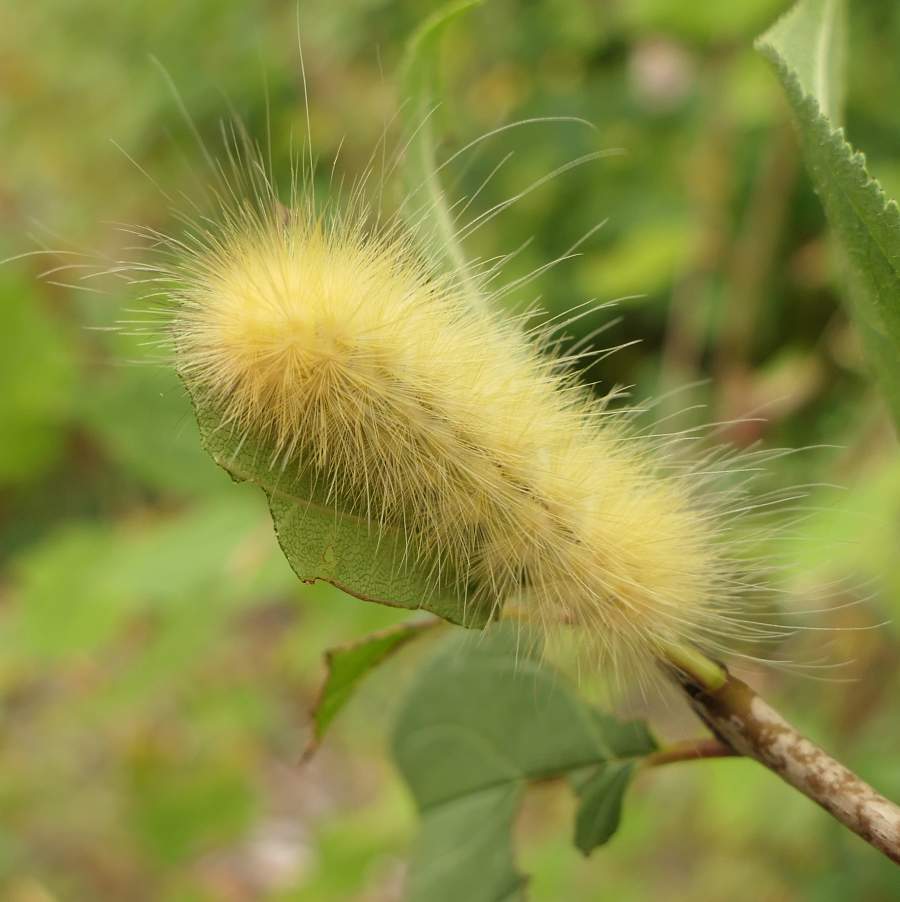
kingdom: Animalia
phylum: Arthropoda
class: Insecta
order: Lepidoptera
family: Erebidae
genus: Spilosoma
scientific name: Spilosoma virginica
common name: Virginia tiger moth
